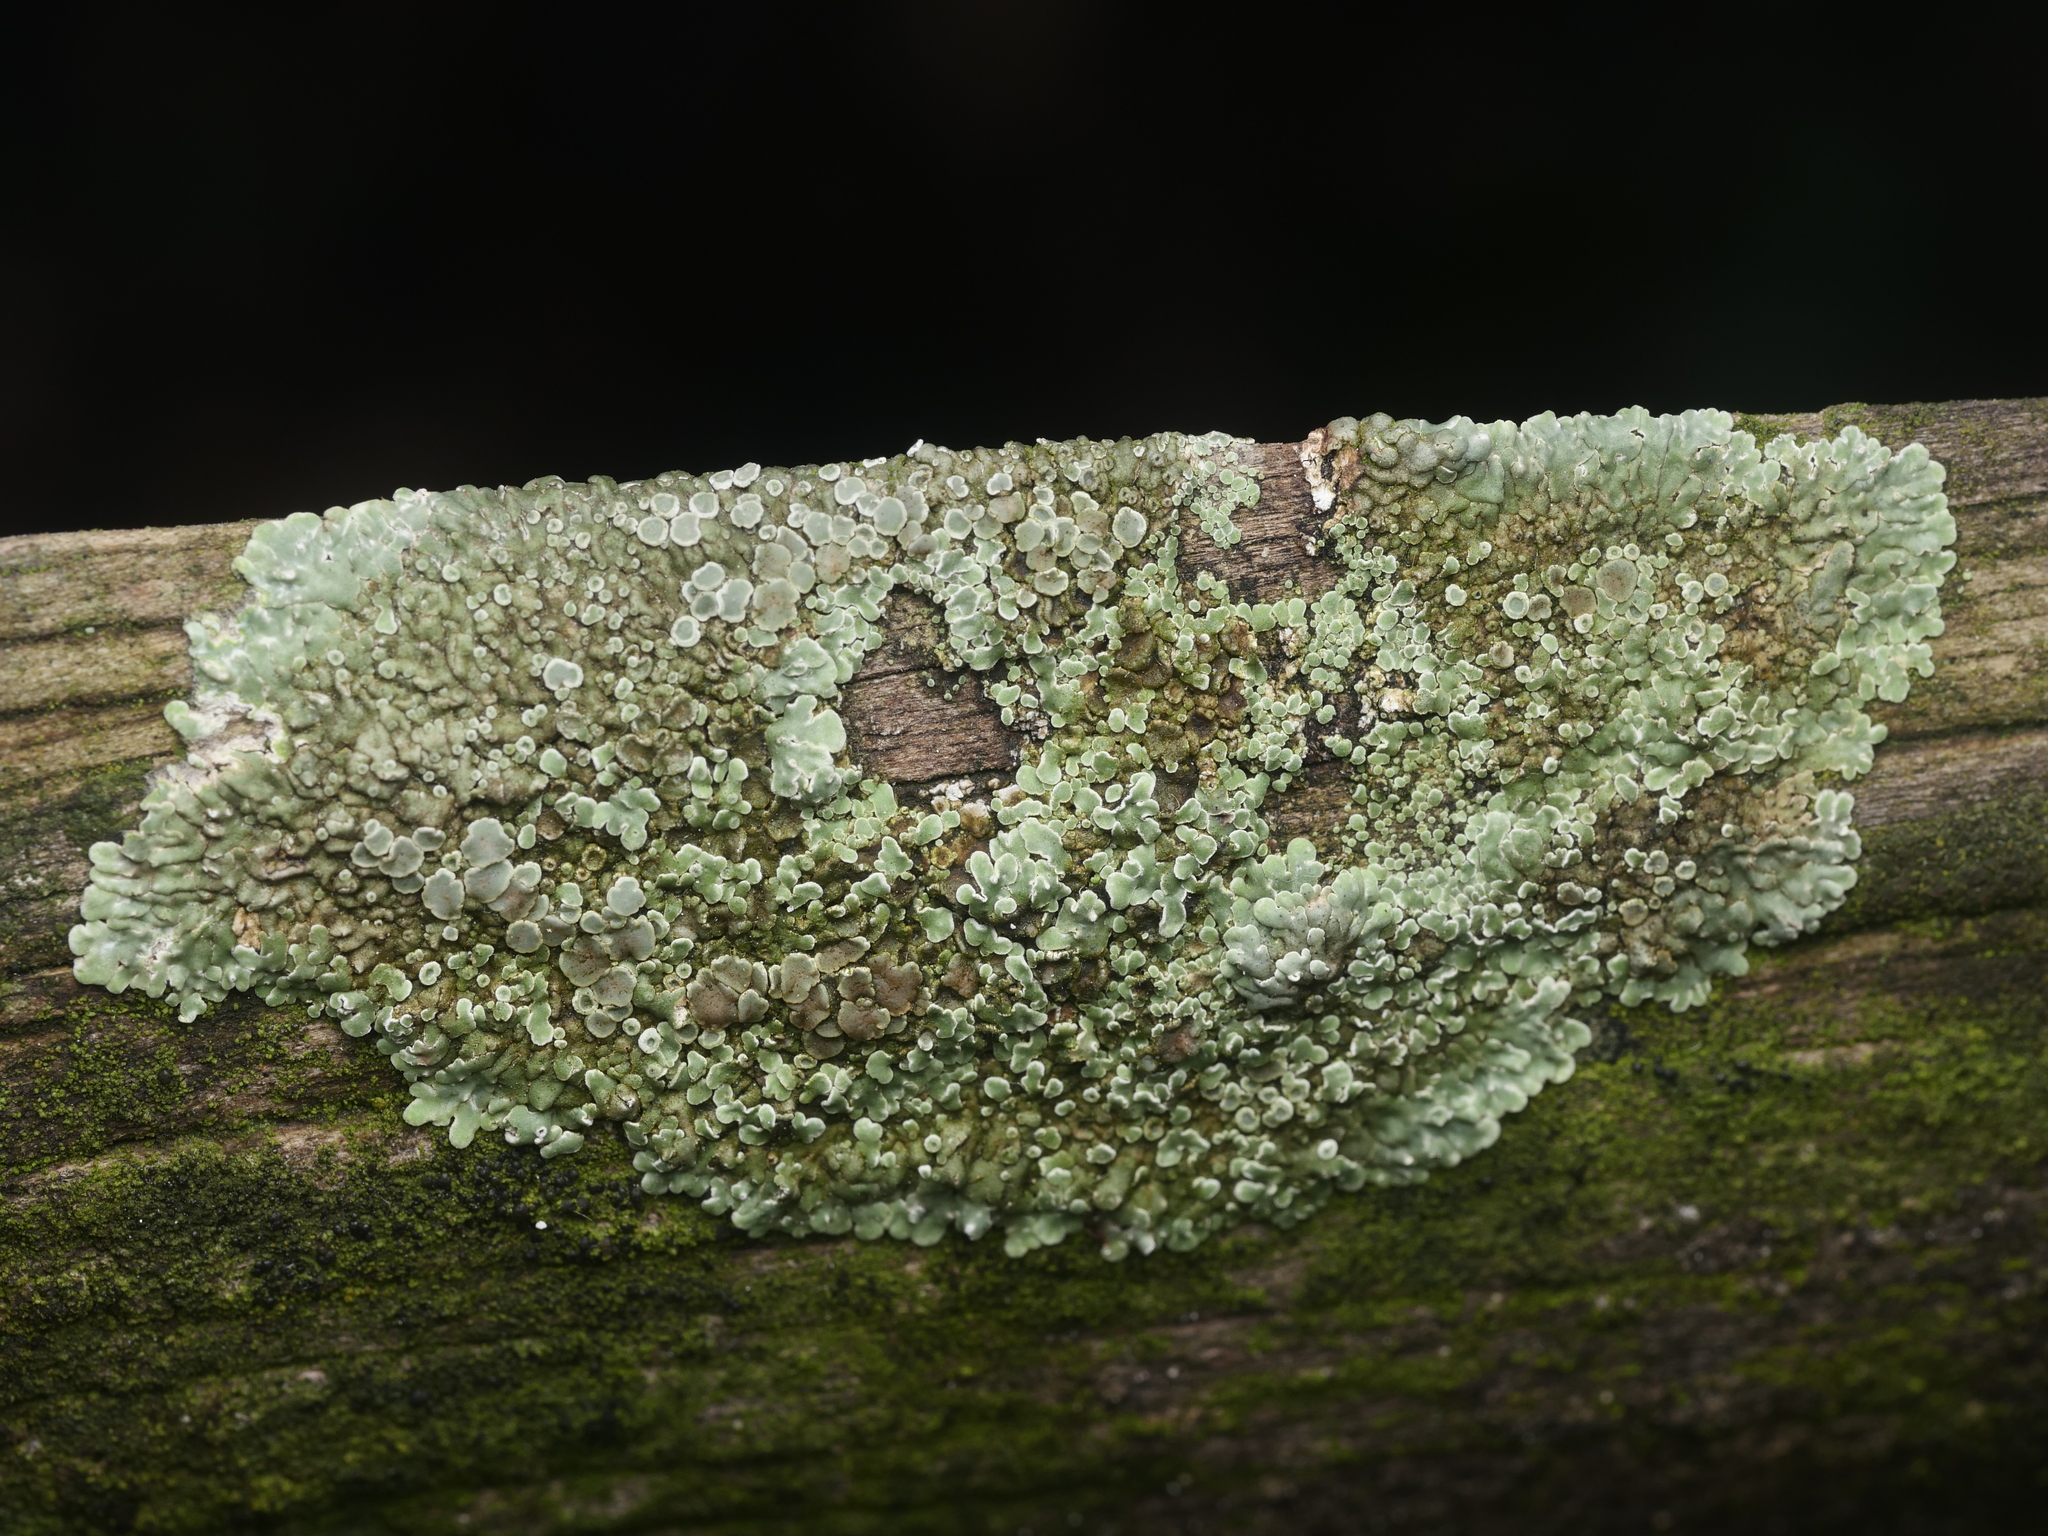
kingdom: Fungi
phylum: Ascomycota
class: Lecanoromycetes
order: Lecanorales
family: Lecanoraceae
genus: Protoparmeliopsis
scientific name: Protoparmeliopsis muralis
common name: Stonewall rim lichen
